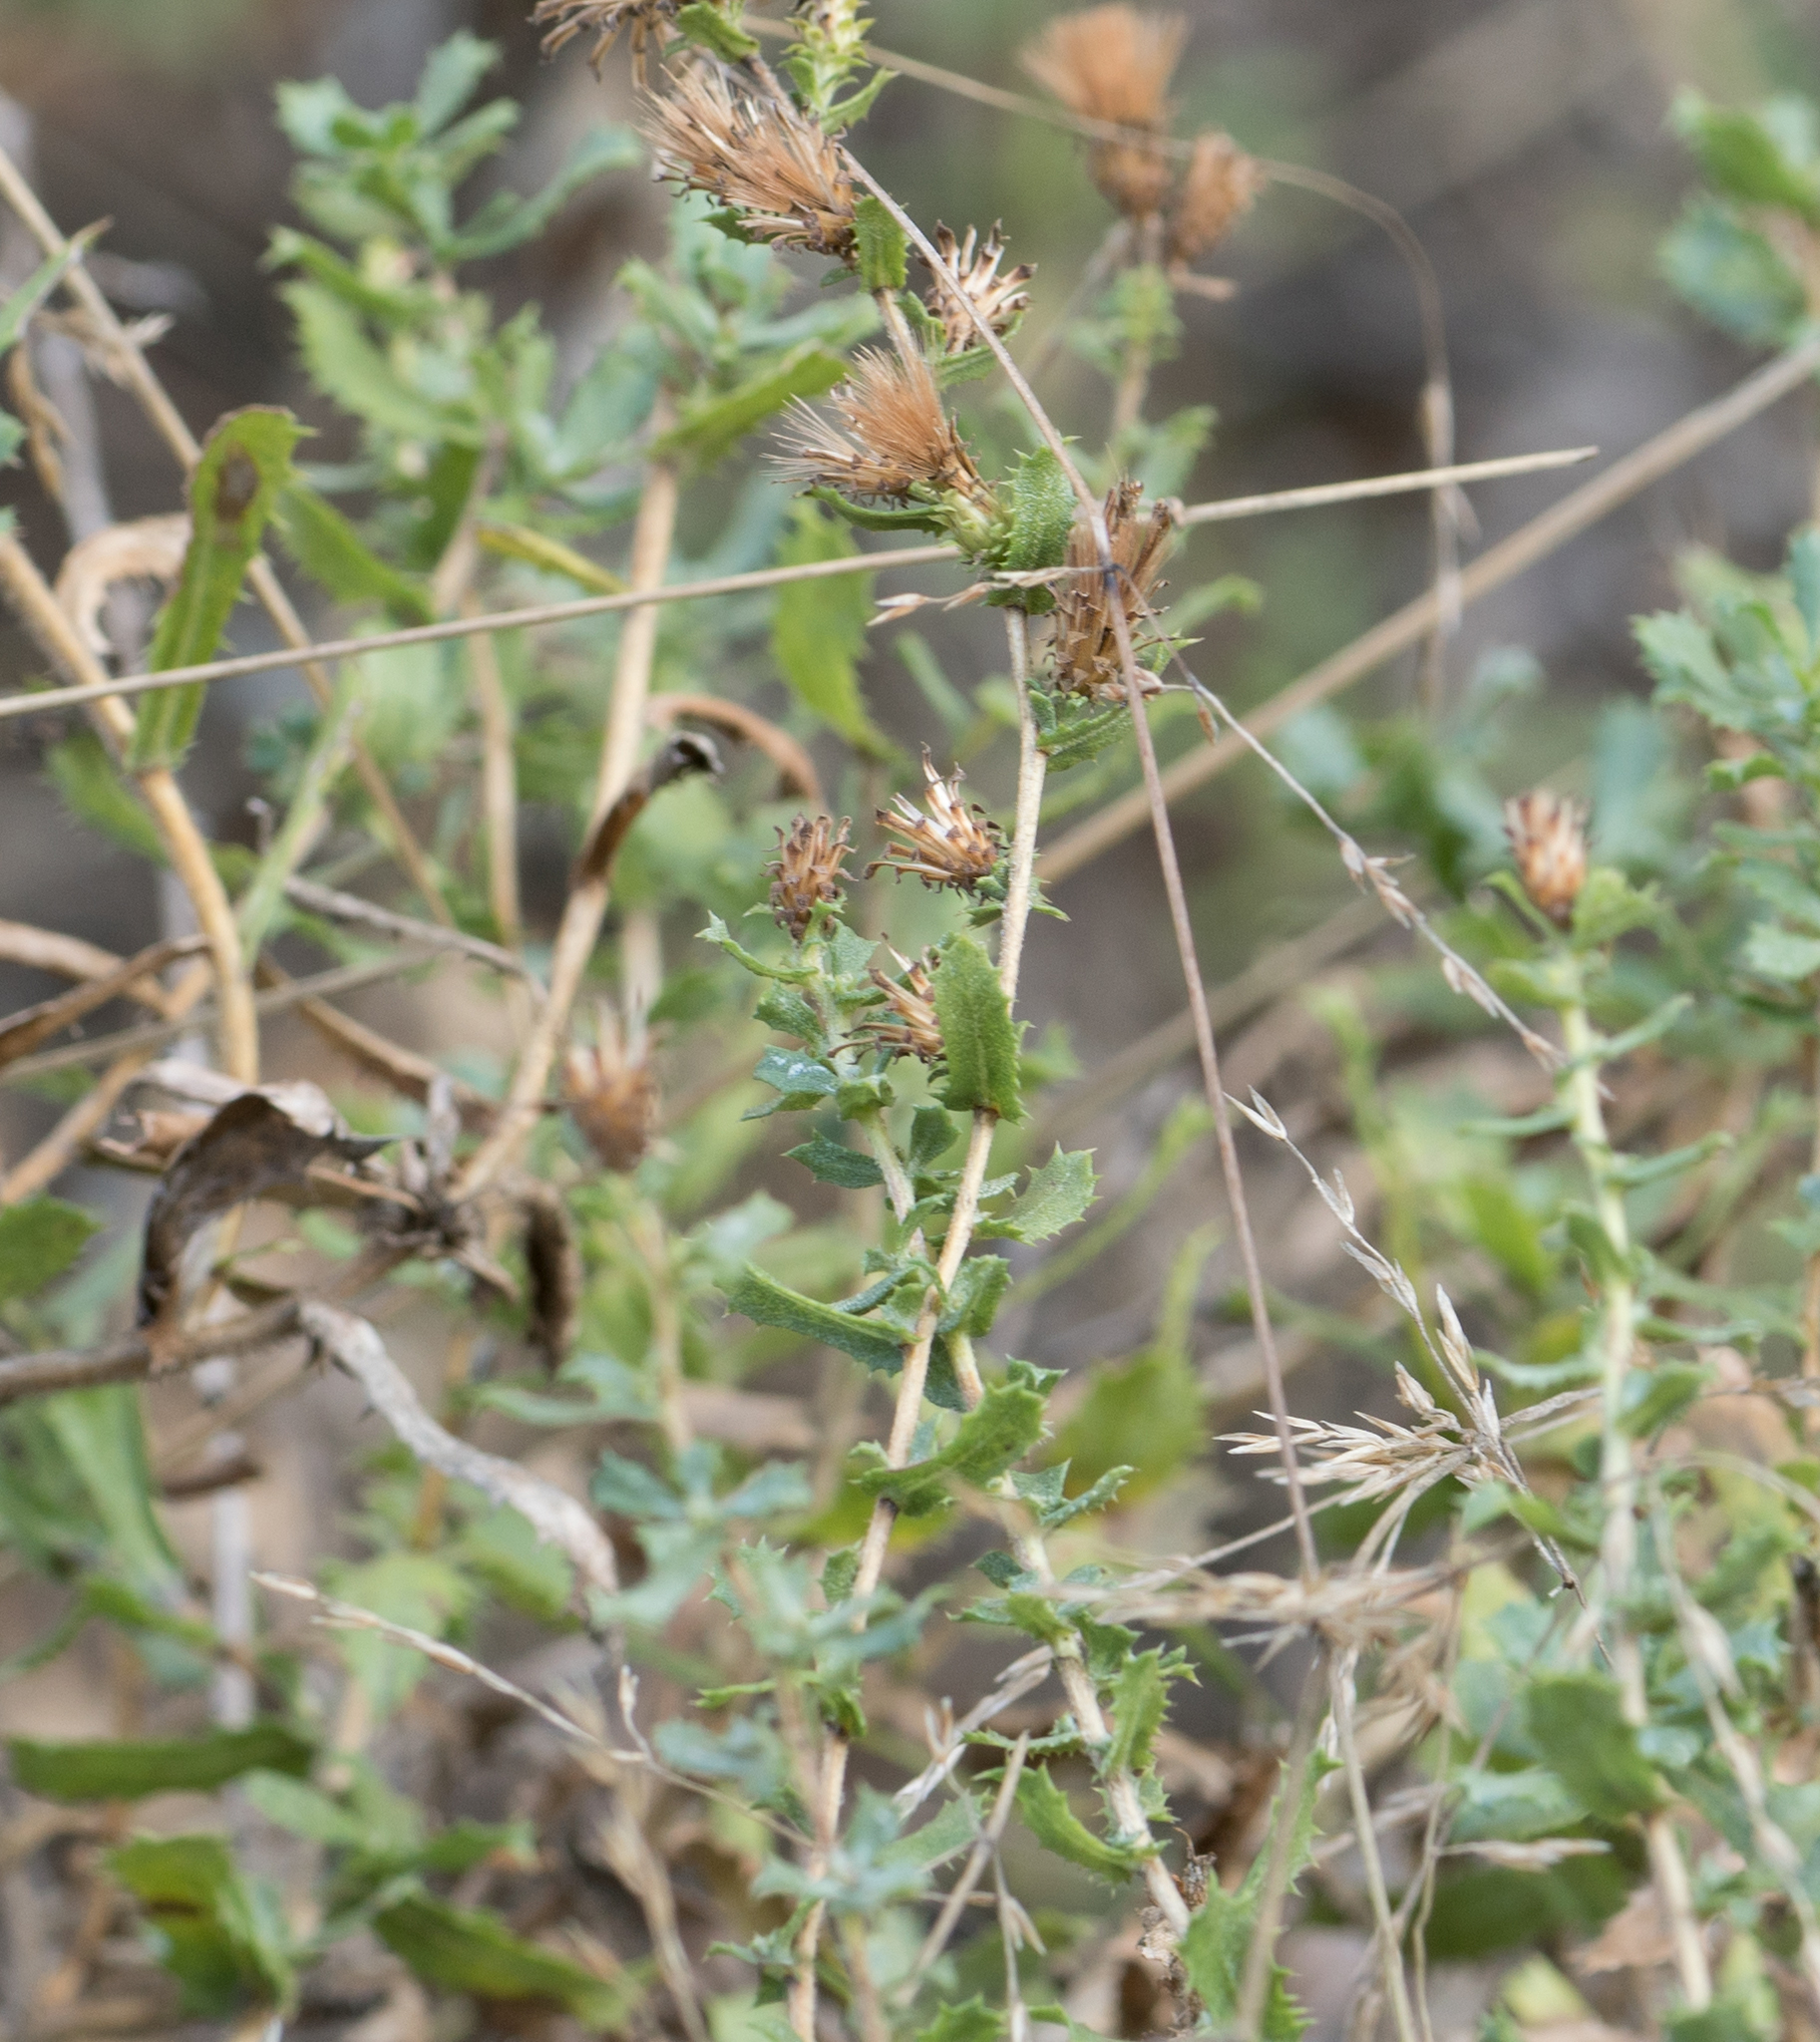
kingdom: Plantae
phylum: Tracheophyta
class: Magnoliopsida
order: Asterales
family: Asteraceae
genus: Hazardia
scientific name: Hazardia squarrosa
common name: Saw-tooth goldenbush
